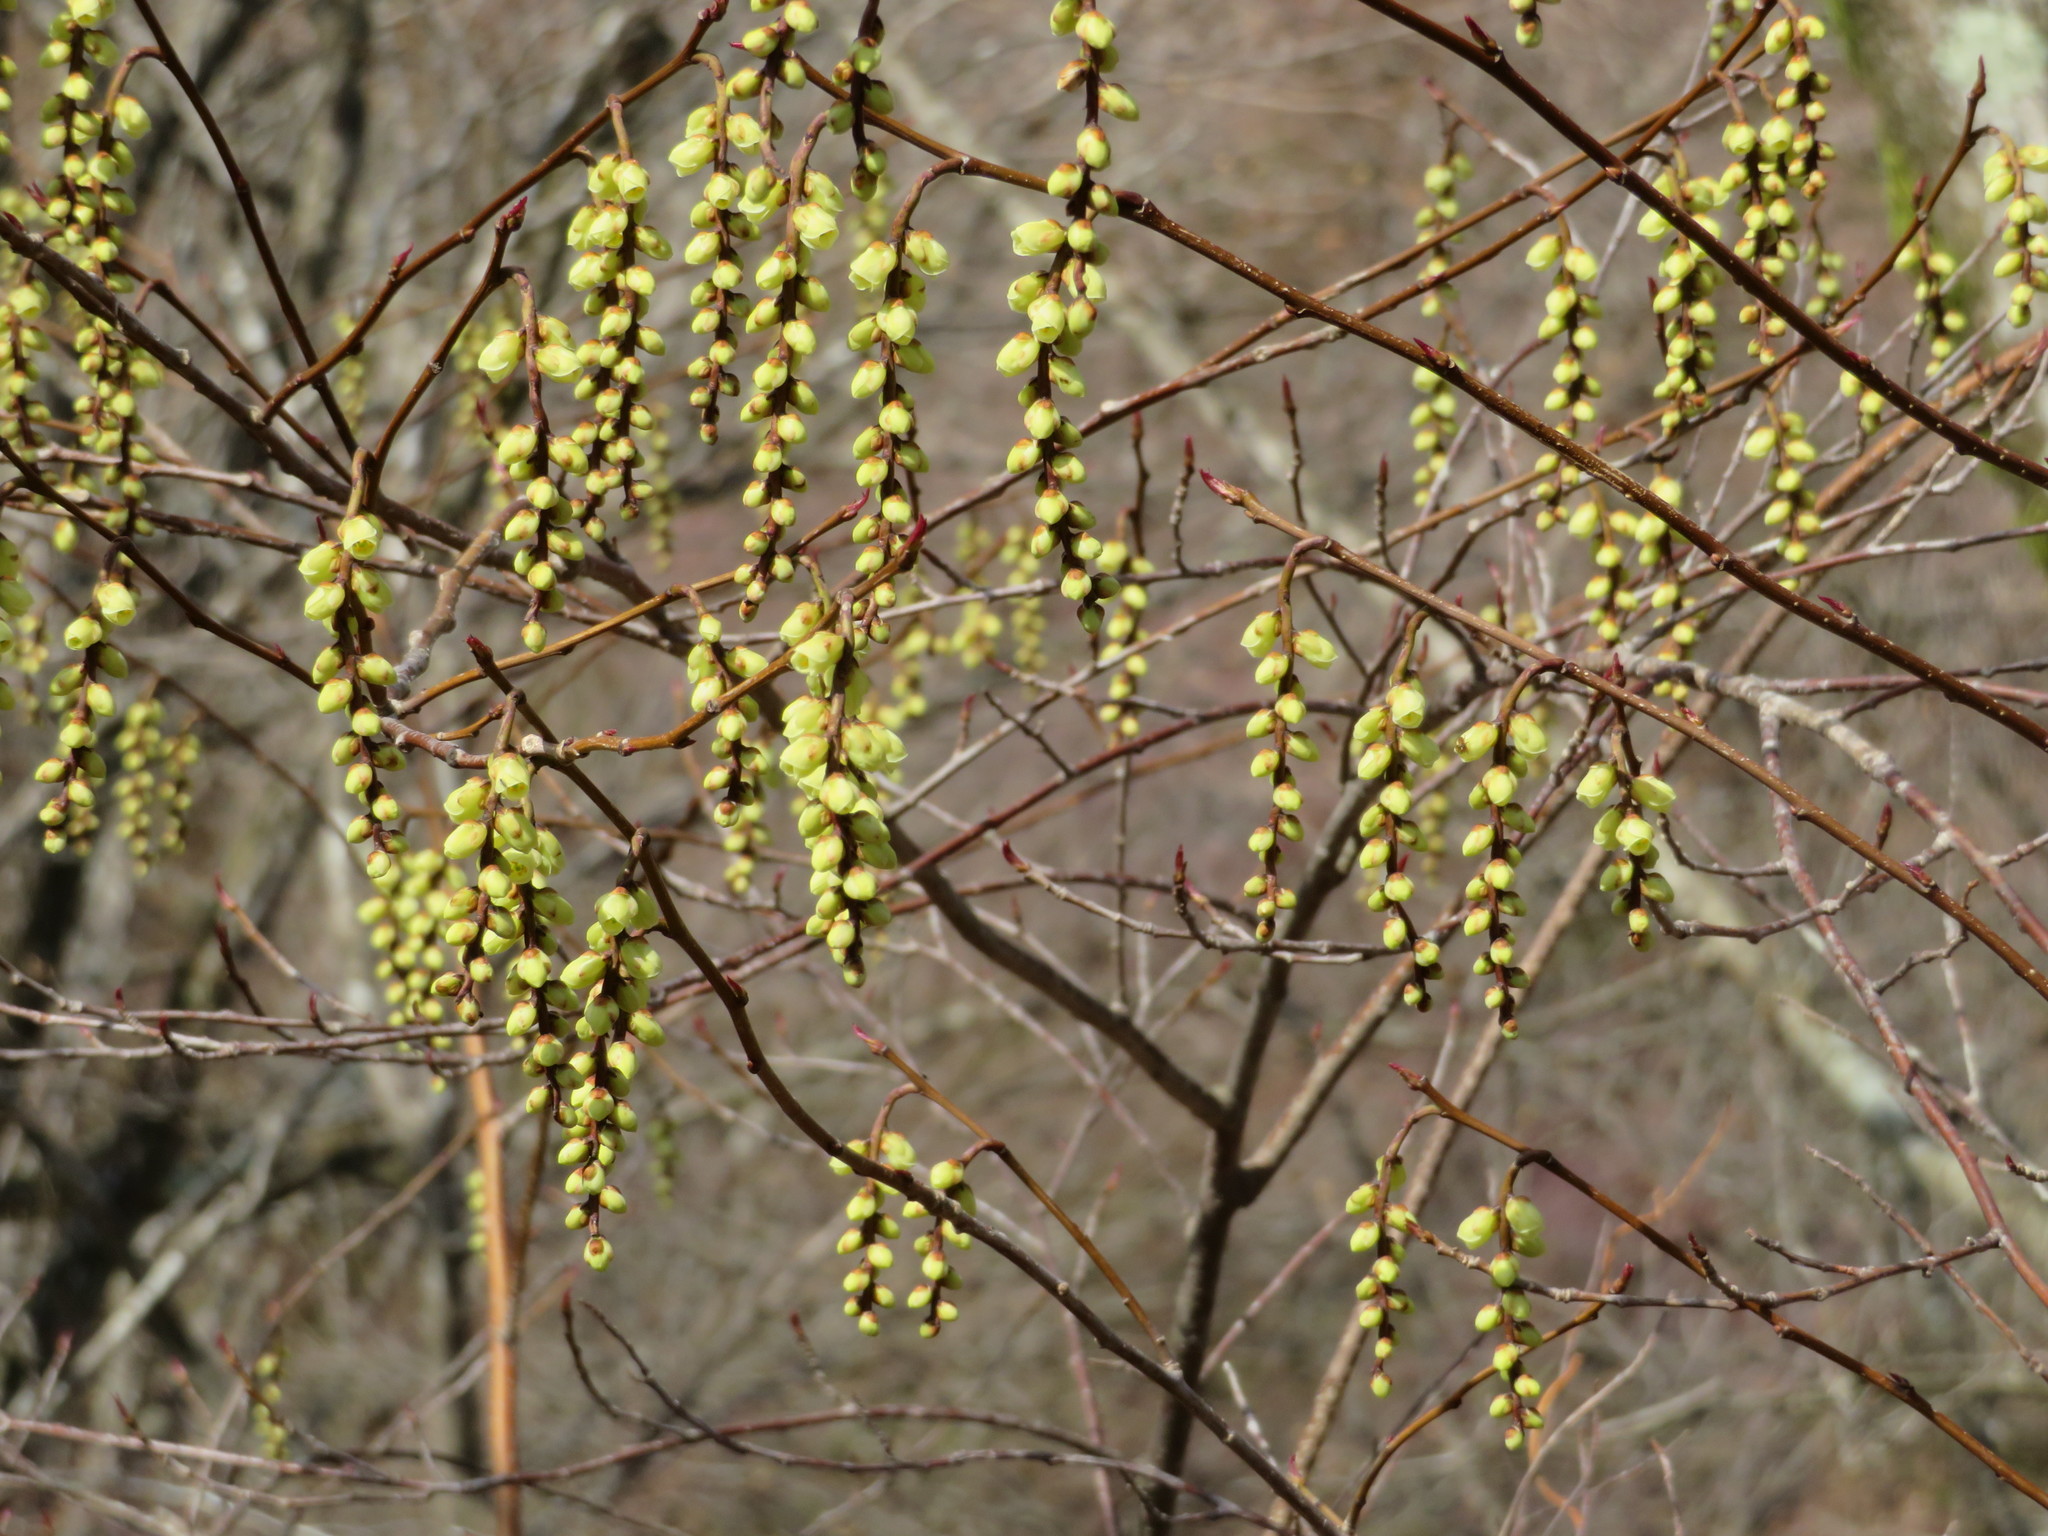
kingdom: Plantae
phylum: Tracheophyta
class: Magnoliopsida
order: Crossosomatales
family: Stachyuraceae
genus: Stachyurus
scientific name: Stachyurus praecox
